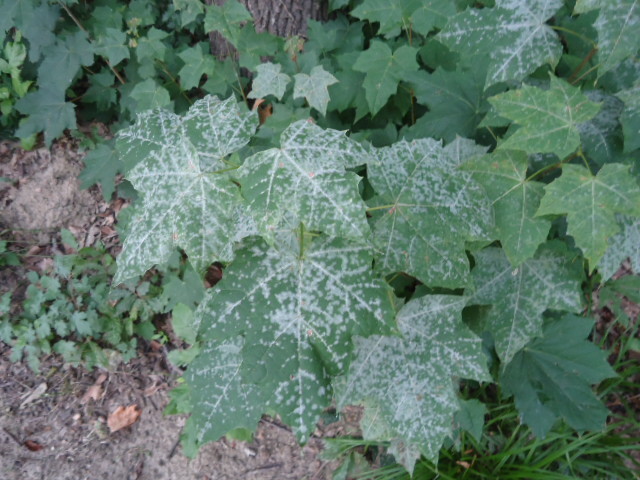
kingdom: Fungi
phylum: Ascomycota
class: Leotiomycetes
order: Helotiales
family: Erysiphaceae
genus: Sawadaea
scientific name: Sawadaea tulasnei
